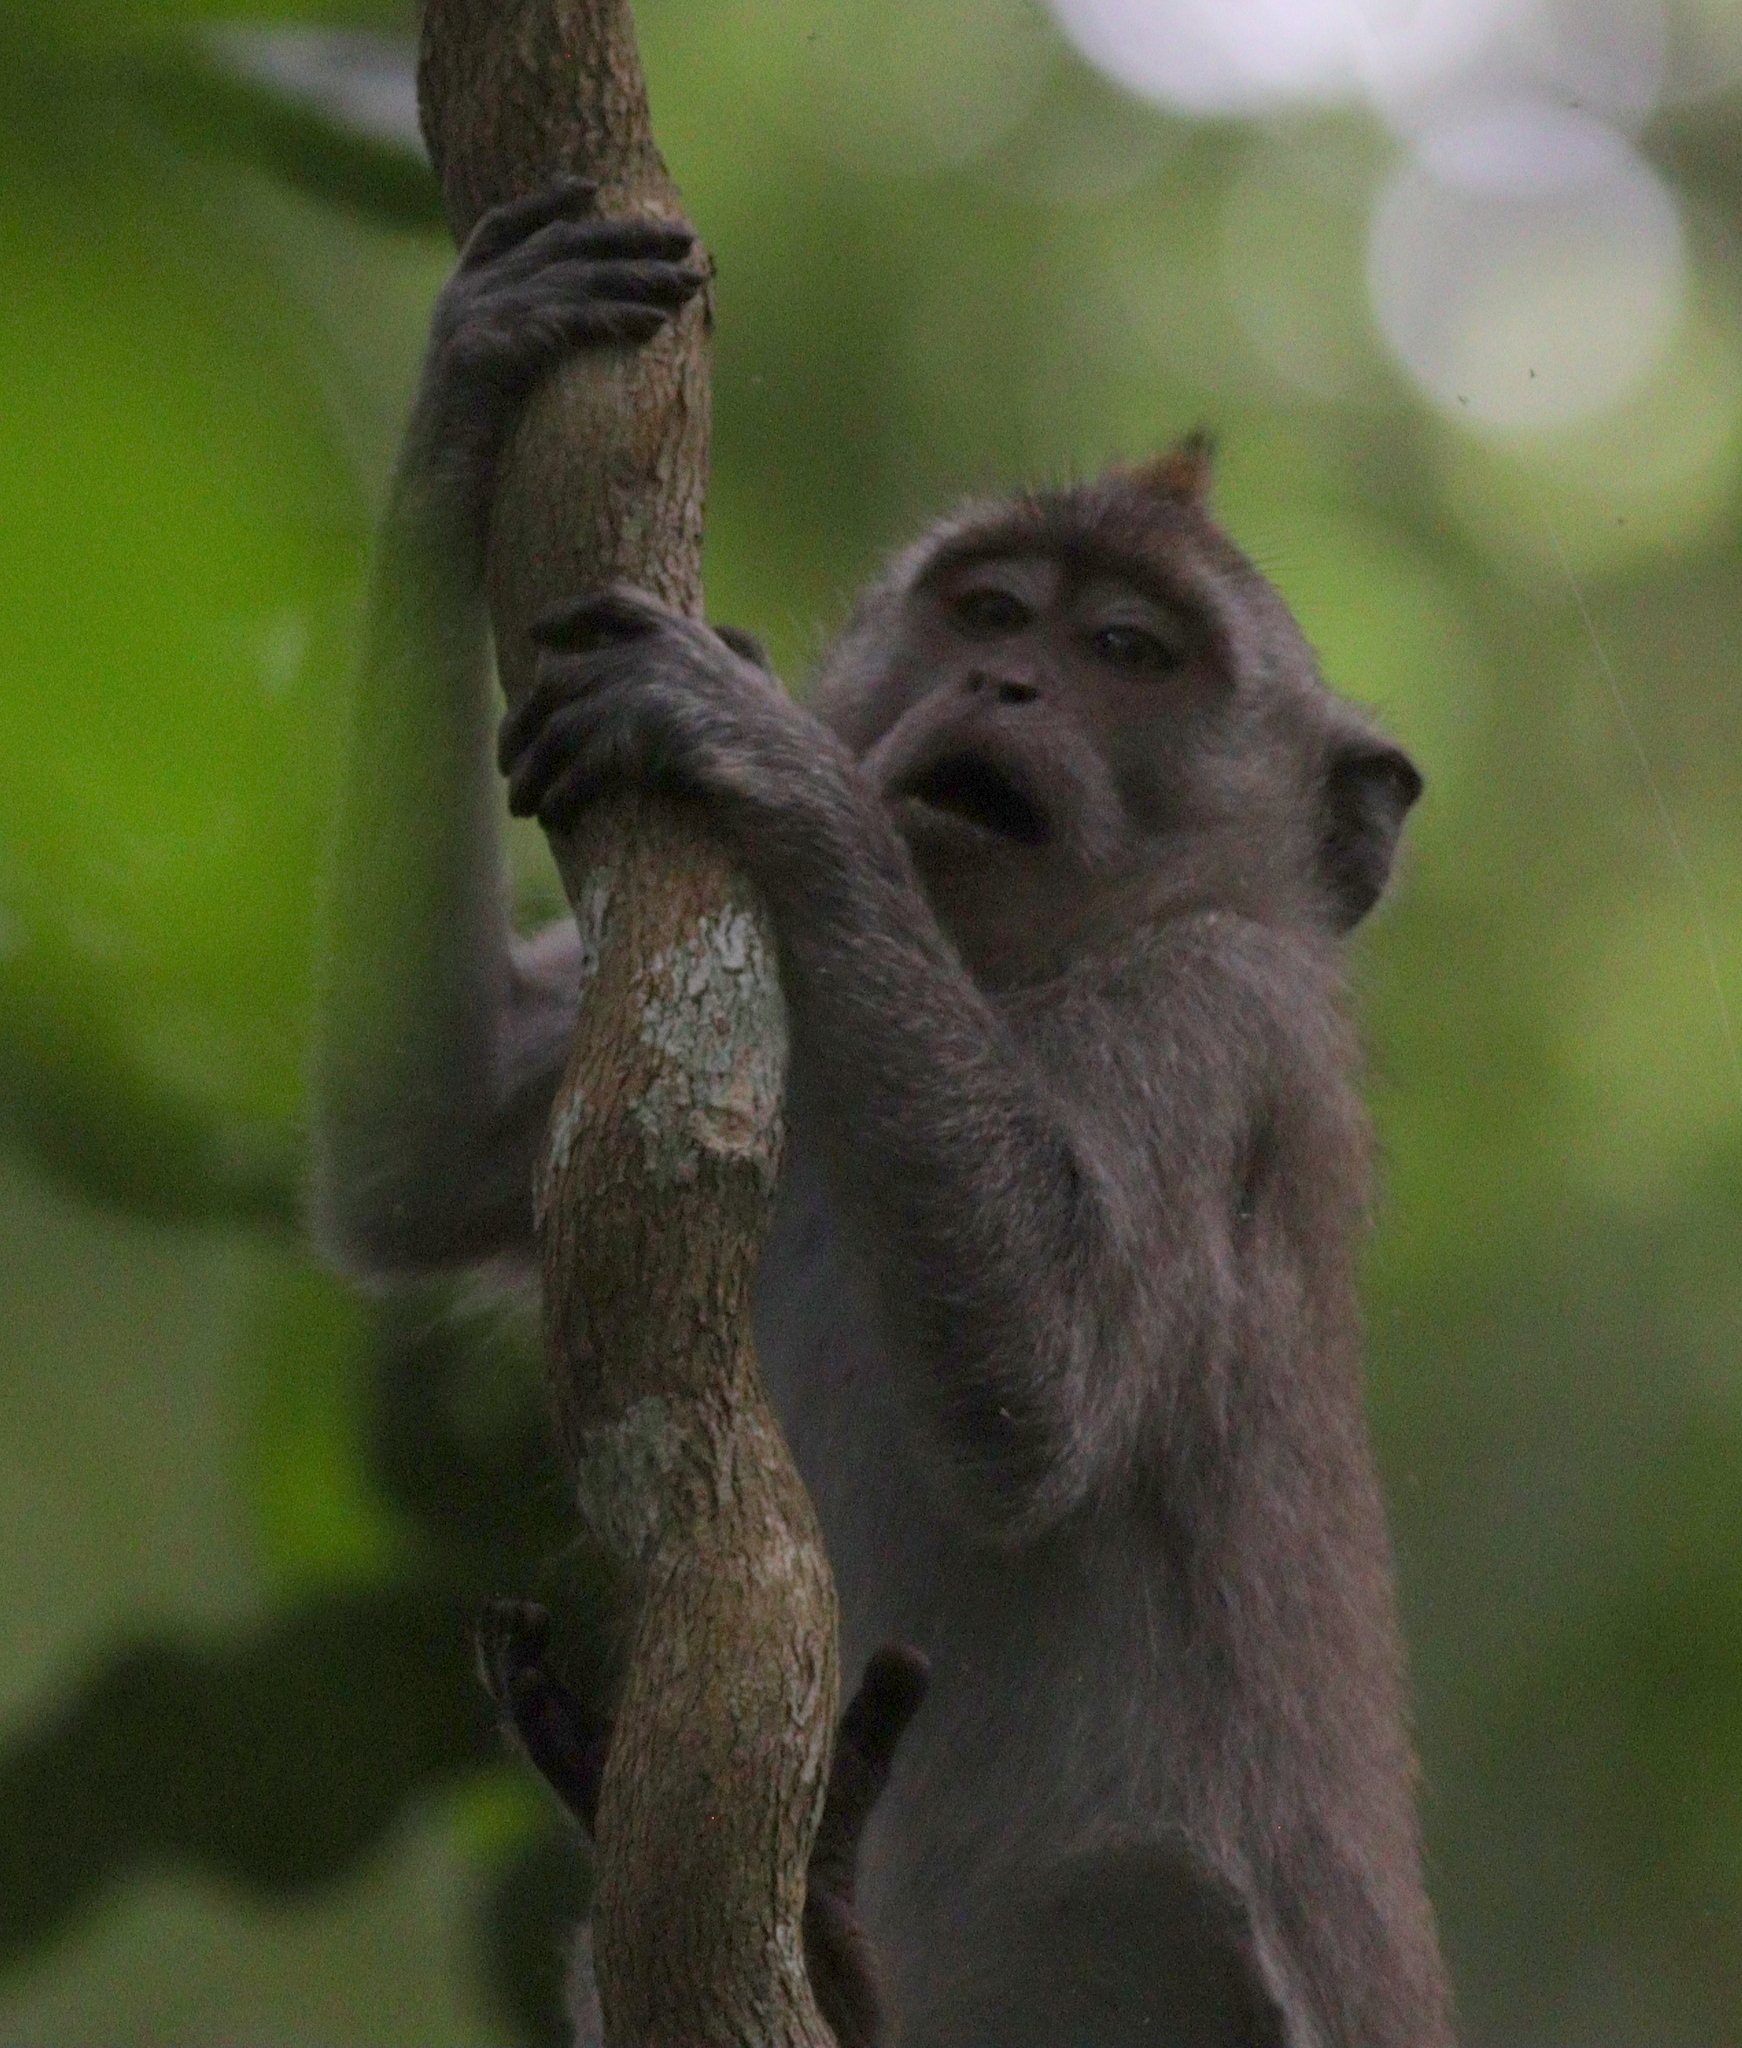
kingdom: Animalia
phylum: Chordata
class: Mammalia
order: Primates
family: Cercopithecidae
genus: Macaca
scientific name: Macaca fascicularis
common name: Crab-eating macaque
